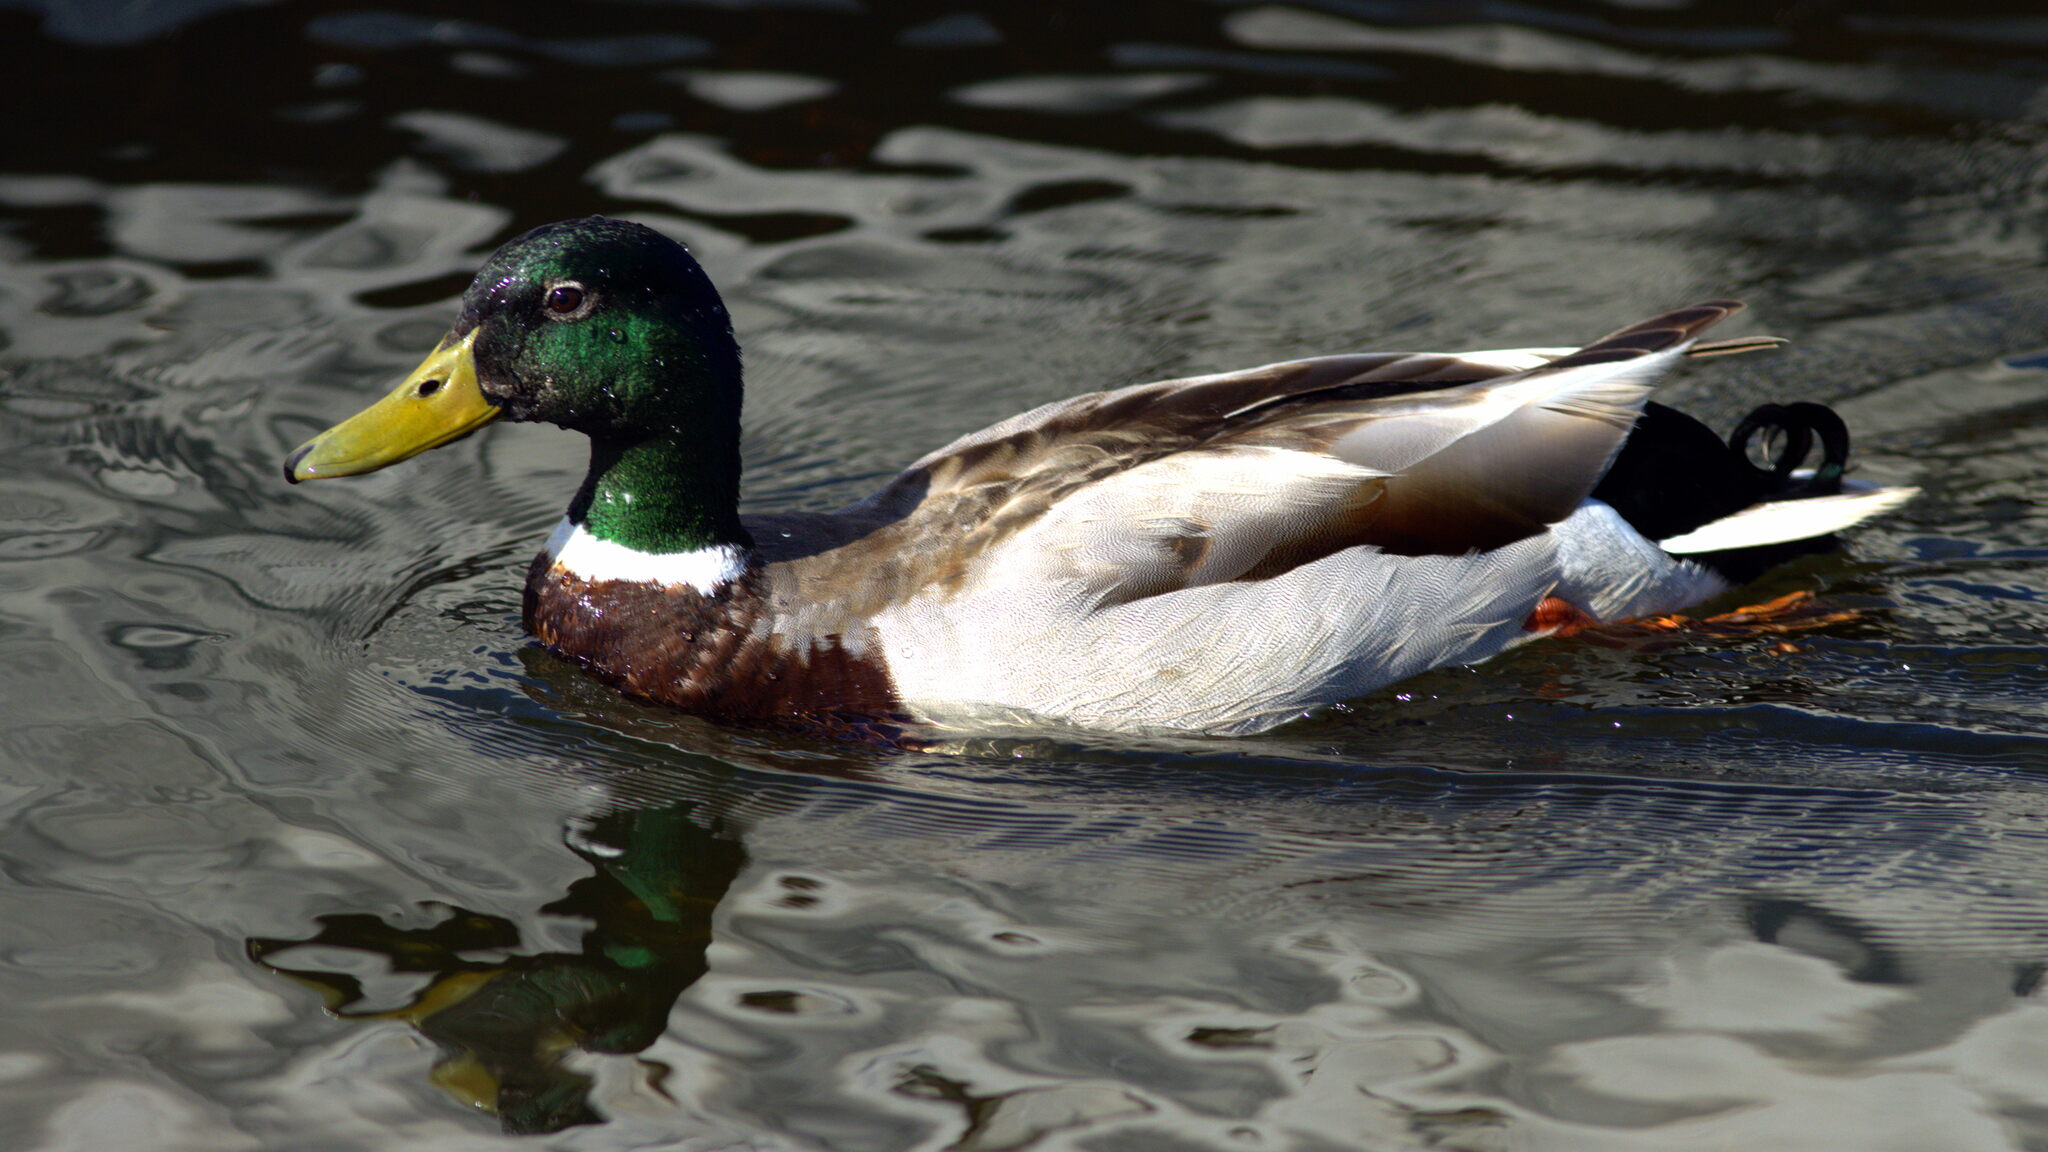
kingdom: Animalia
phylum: Chordata
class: Aves
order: Anseriformes
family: Anatidae
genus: Anas
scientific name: Anas platyrhynchos
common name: Mallard
